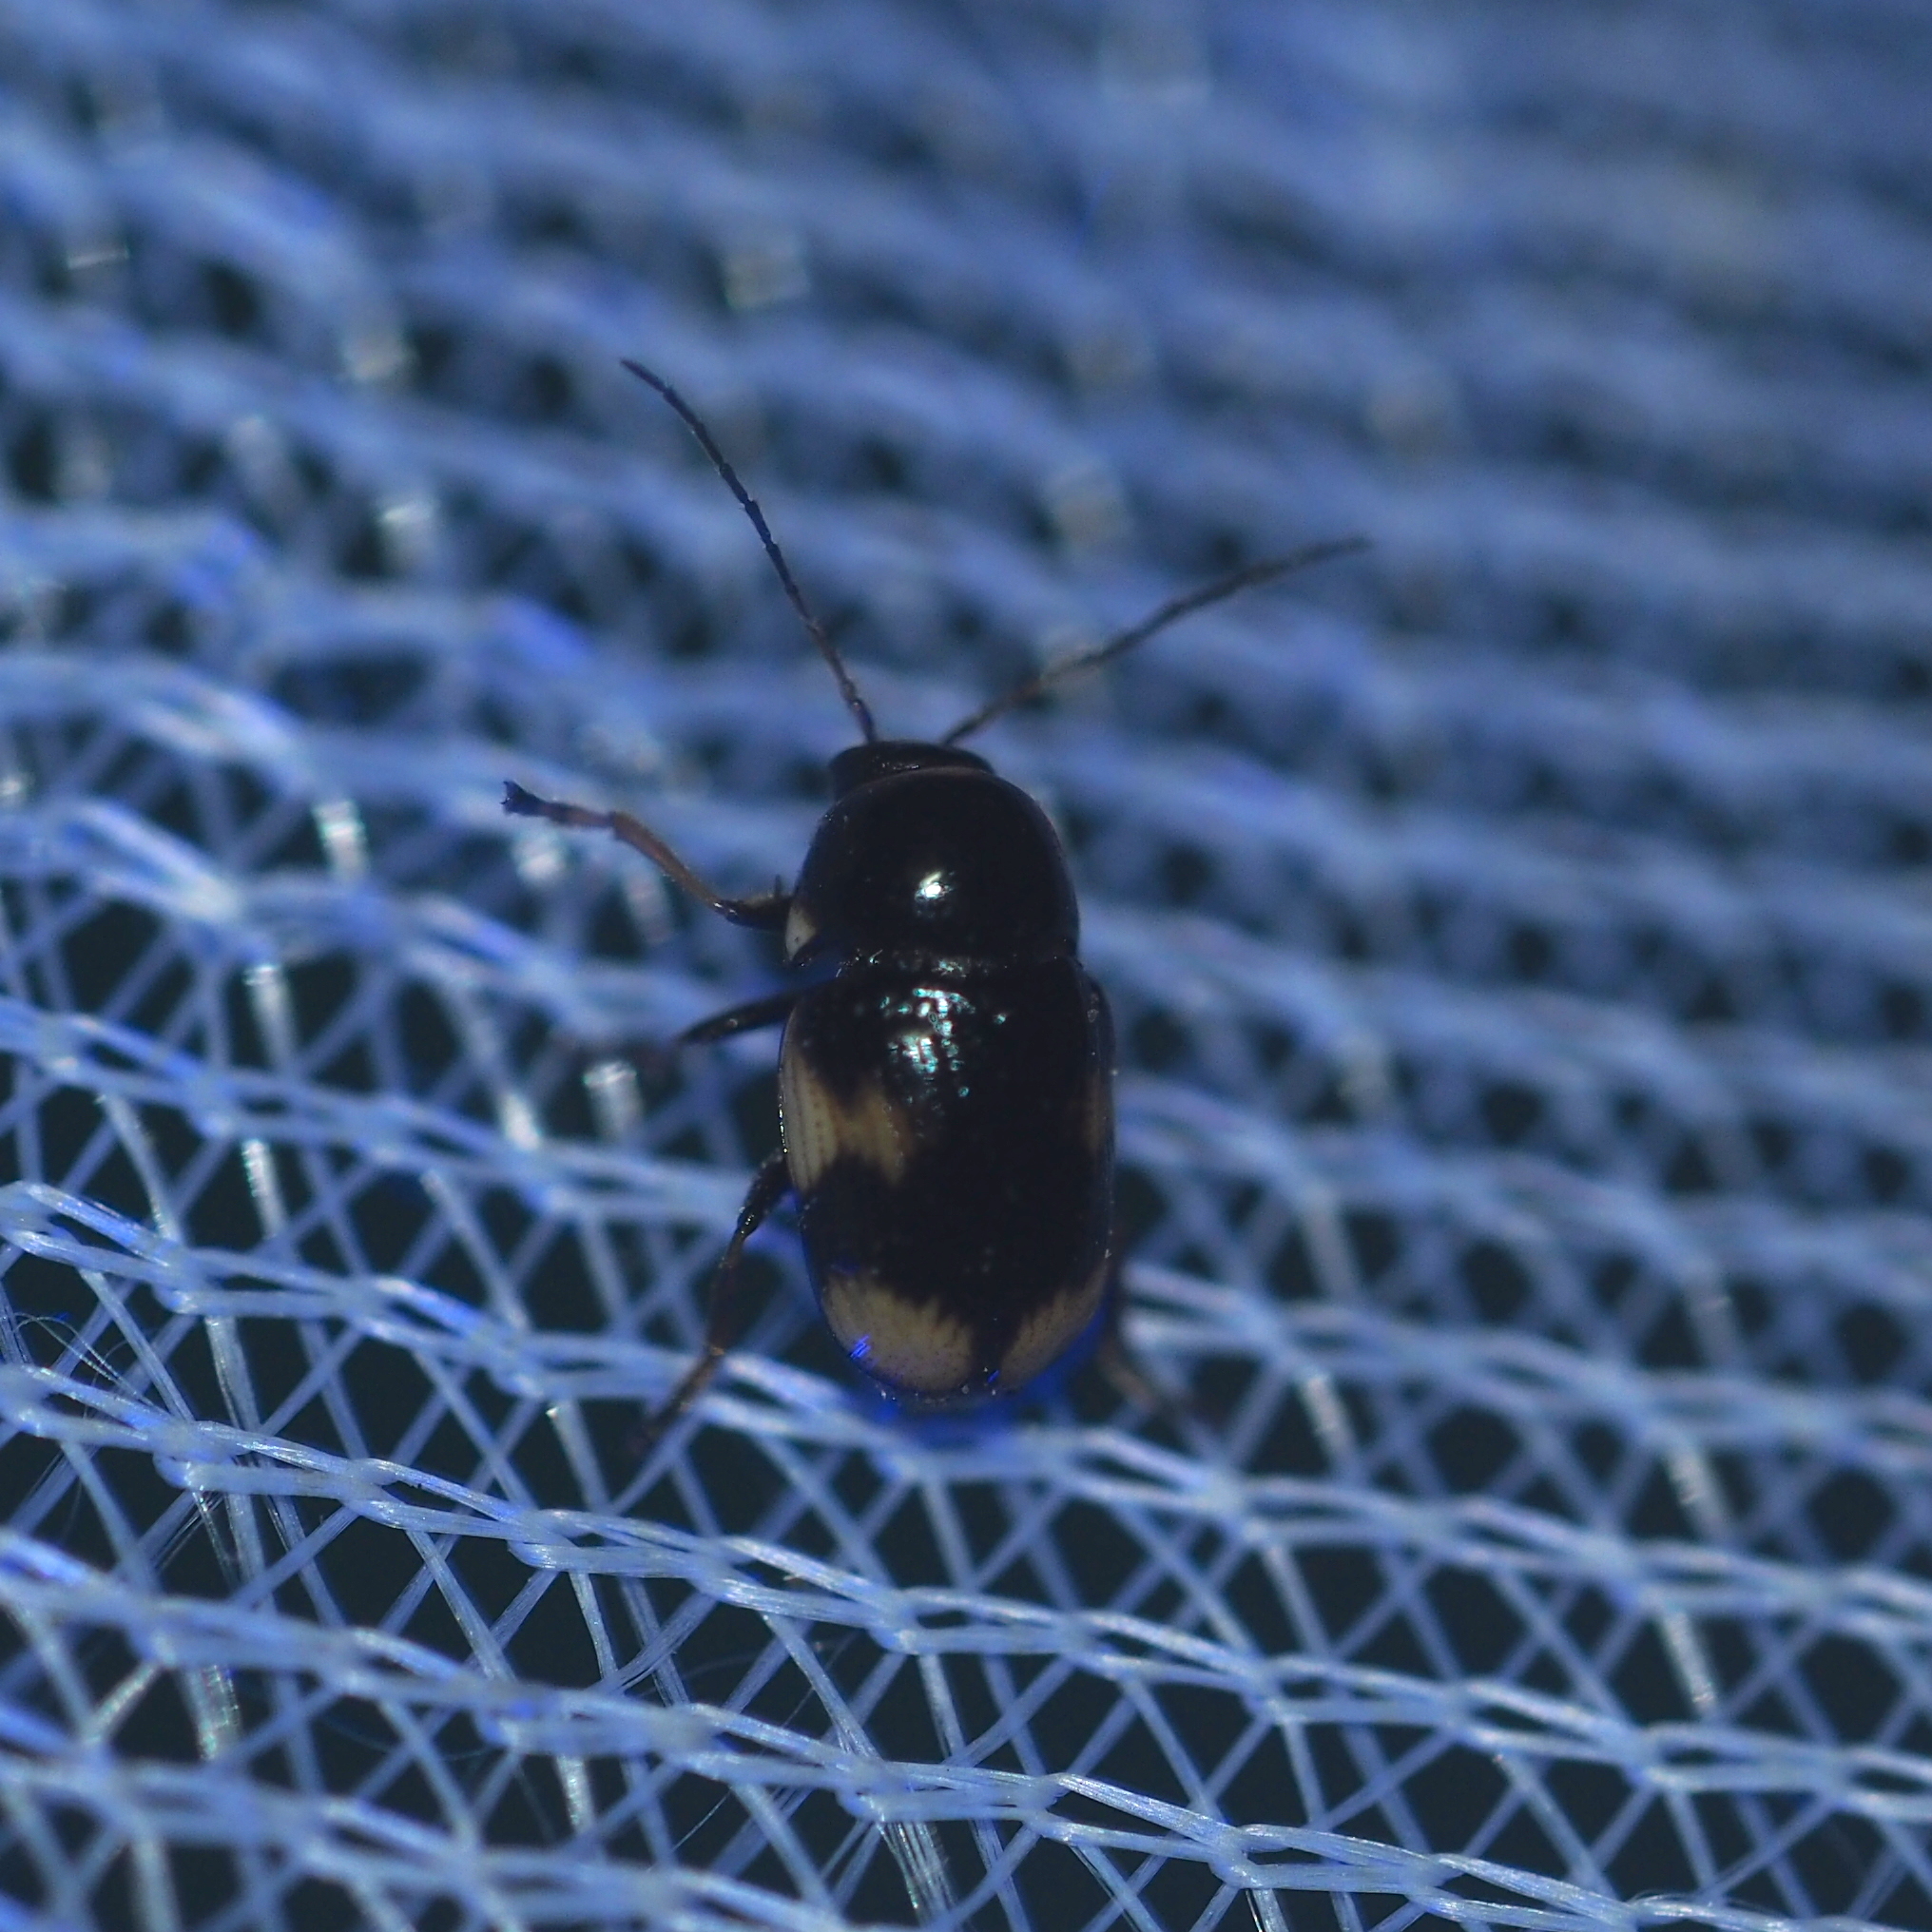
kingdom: Animalia
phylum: Arthropoda
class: Insecta
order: Coleoptera
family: Chrysomelidae
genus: Cryptocephalus
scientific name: Cryptocephalus moraei
